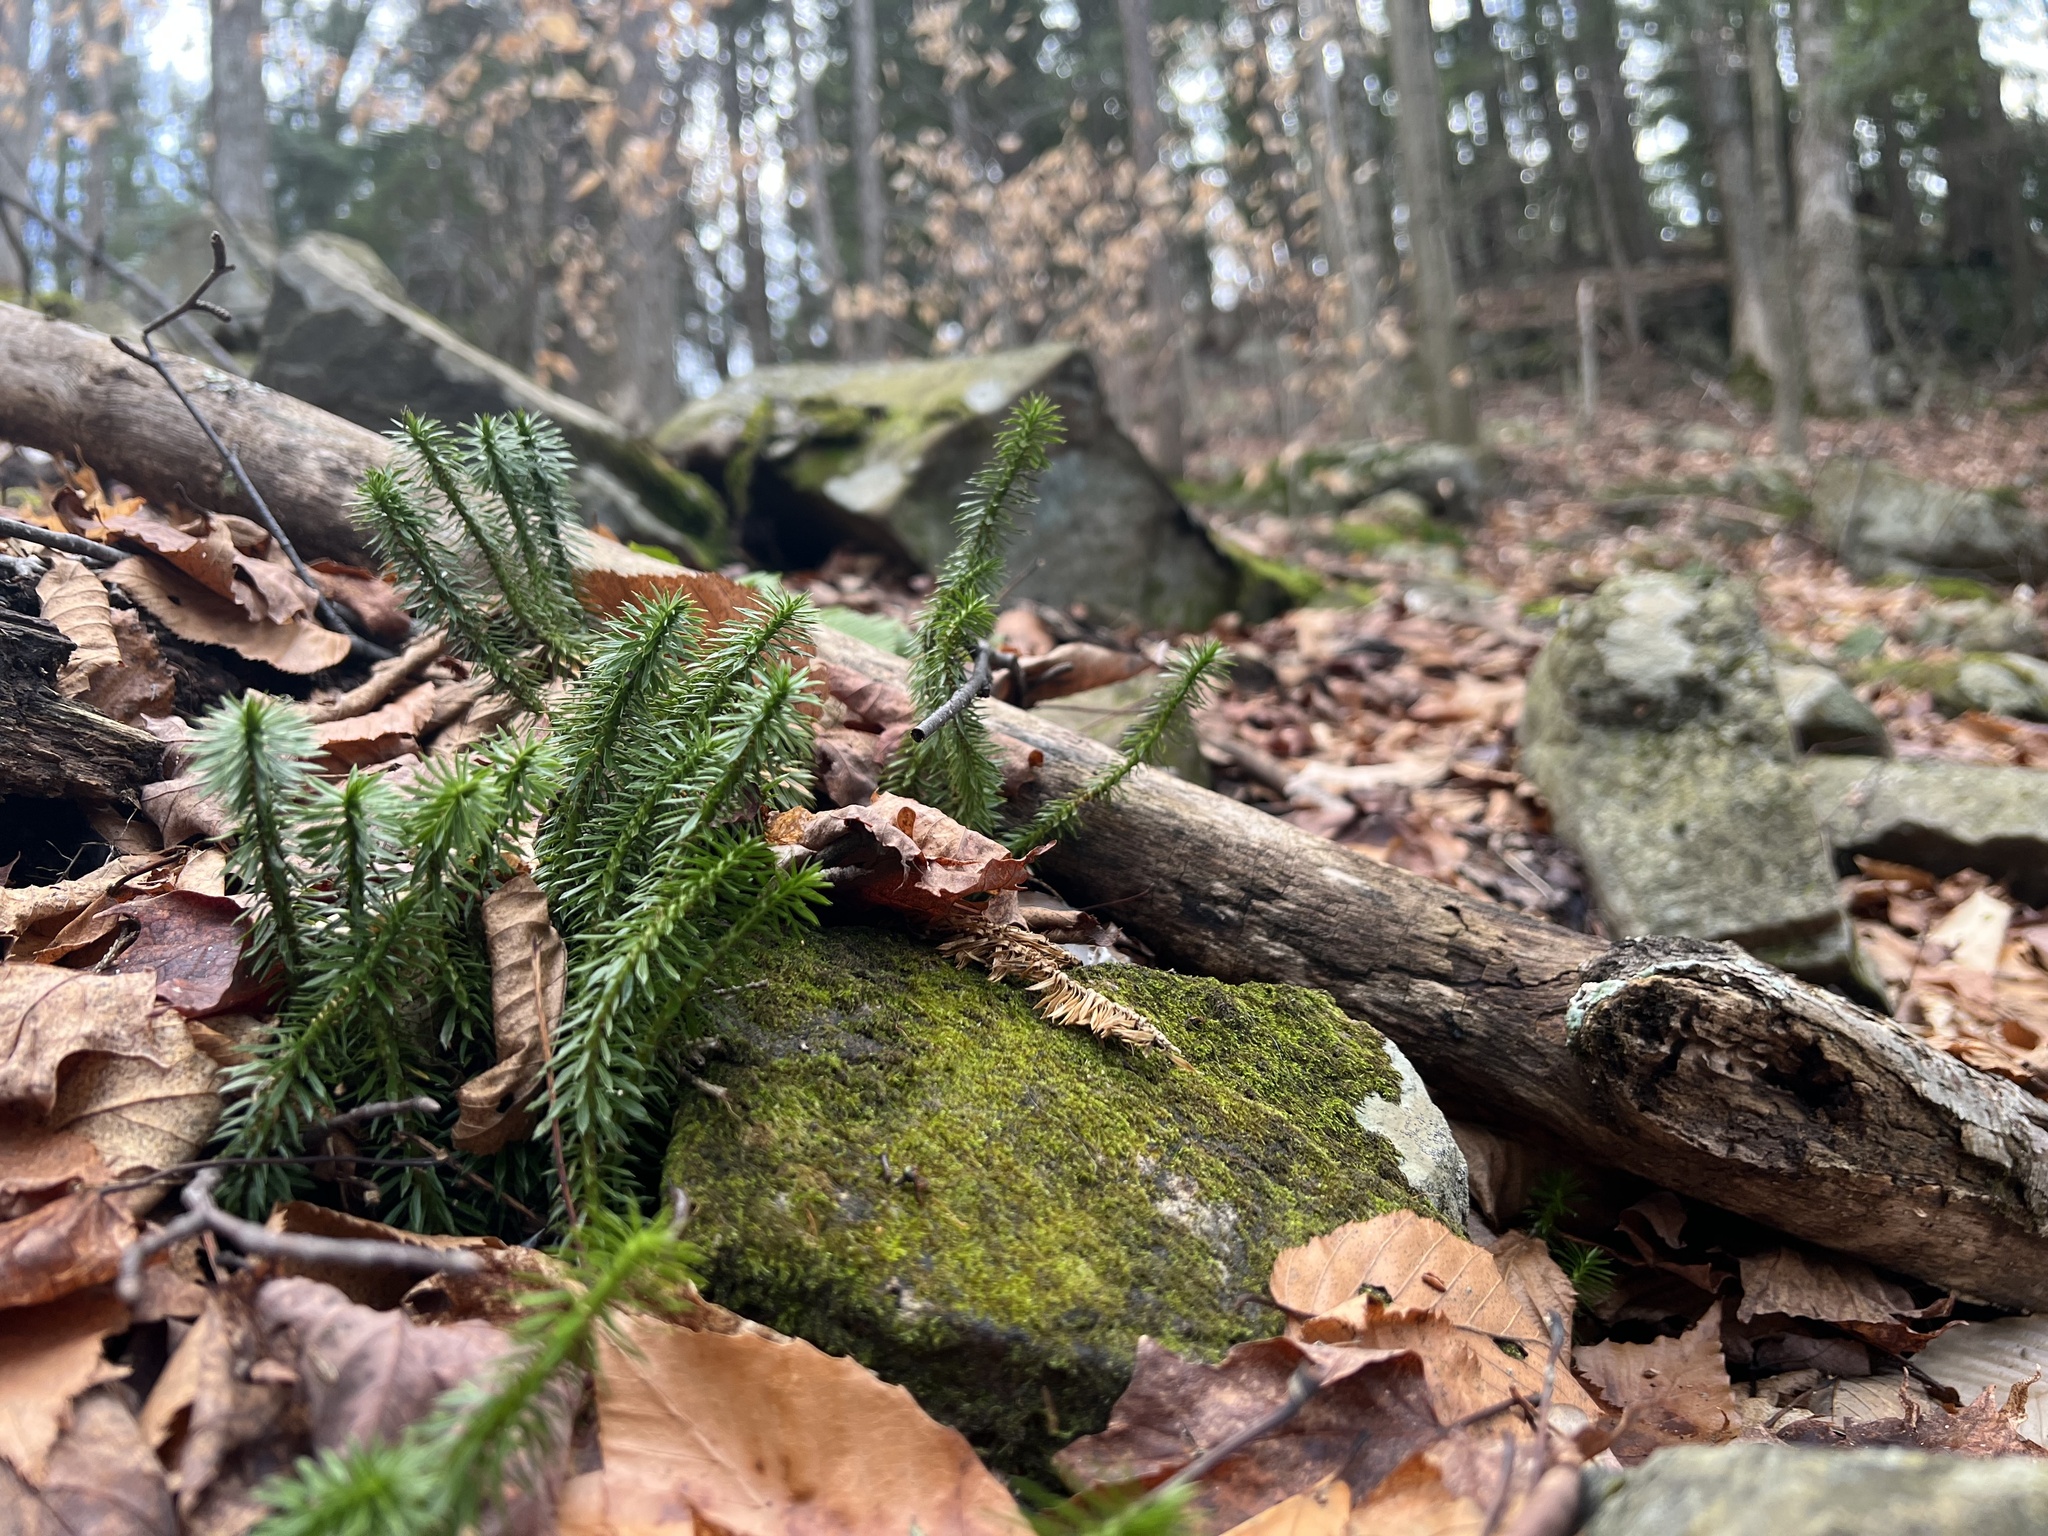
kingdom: Plantae
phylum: Tracheophyta
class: Lycopodiopsida
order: Lycopodiales
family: Lycopodiaceae
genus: Huperzia
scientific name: Huperzia lucidula
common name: Shining clubmoss
